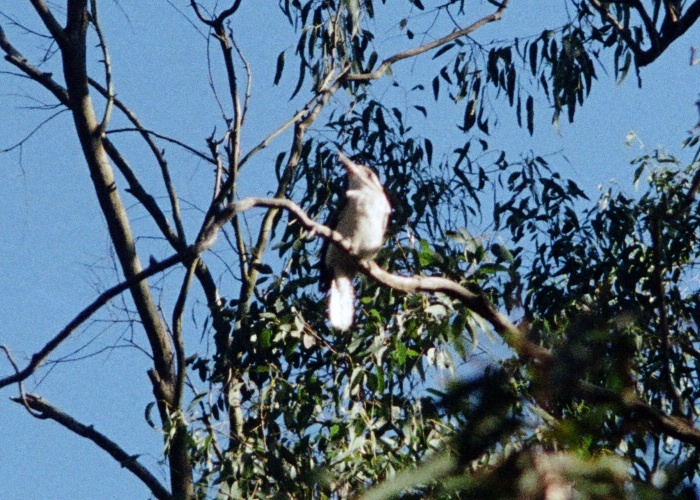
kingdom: Animalia
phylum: Chordata
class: Aves
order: Coraciiformes
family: Alcedinidae
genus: Dacelo
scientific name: Dacelo novaeguineae
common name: Laughing kookaburra
